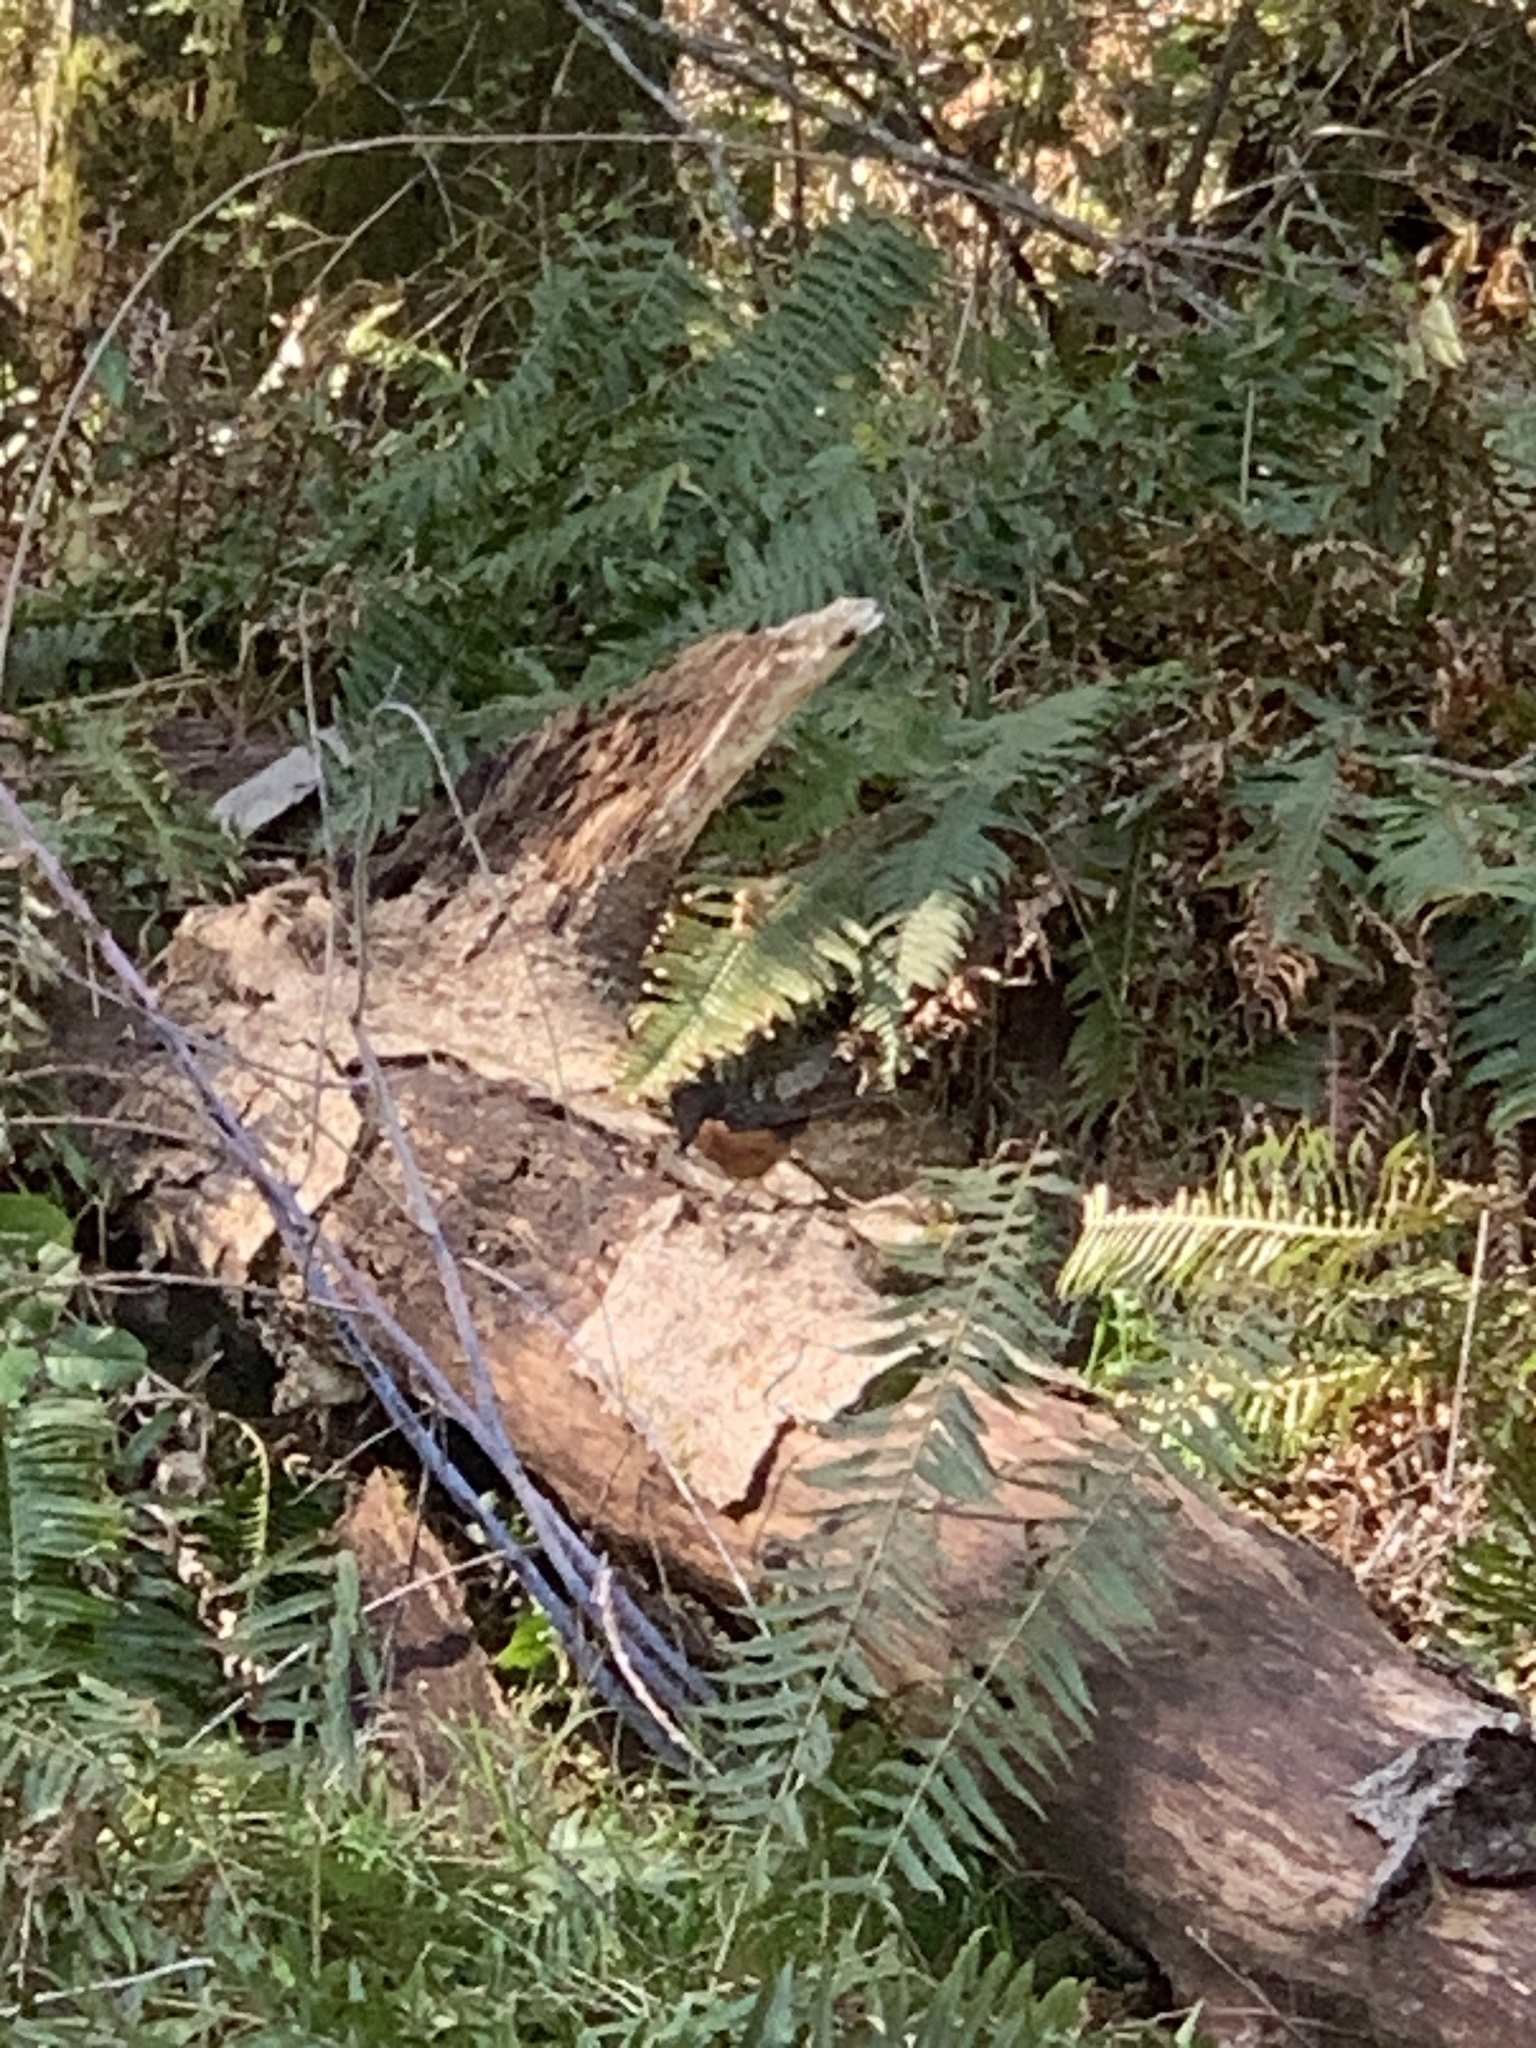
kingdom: Animalia
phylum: Chordata
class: Aves
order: Passeriformes
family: Passerellidae
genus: Pipilo
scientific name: Pipilo maculatus
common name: Spotted towhee
